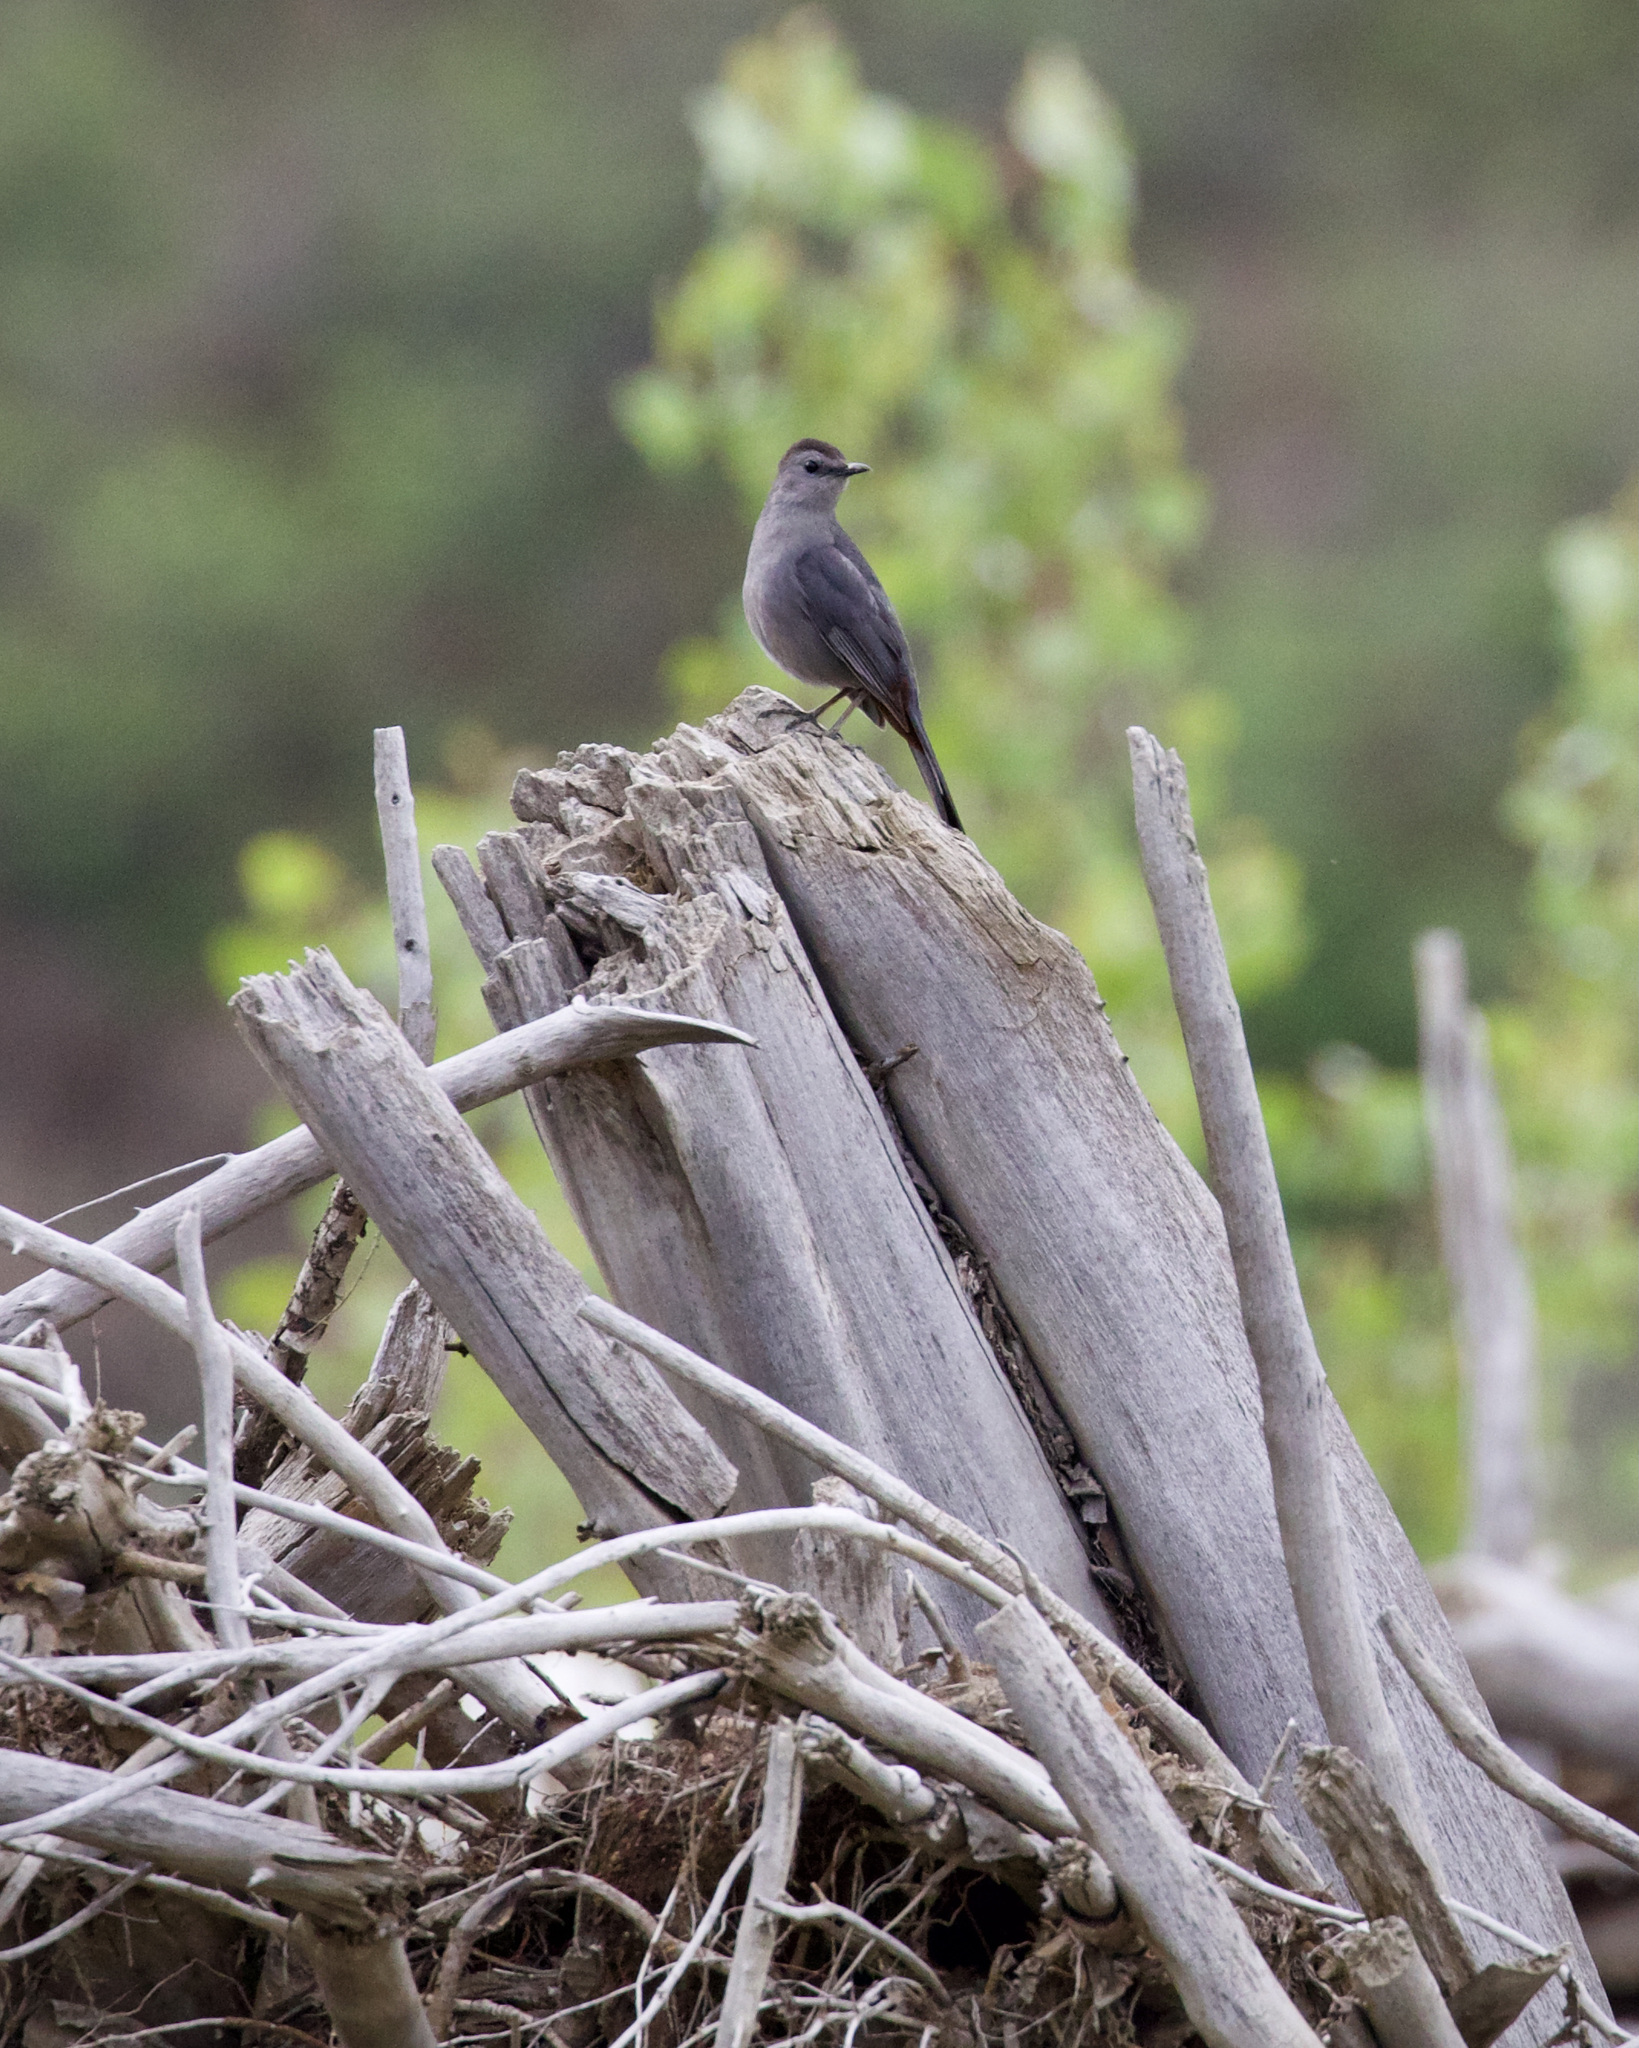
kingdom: Animalia
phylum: Chordata
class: Aves
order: Passeriformes
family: Mimidae
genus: Dumetella
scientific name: Dumetella carolinensis
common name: Gray catbird
